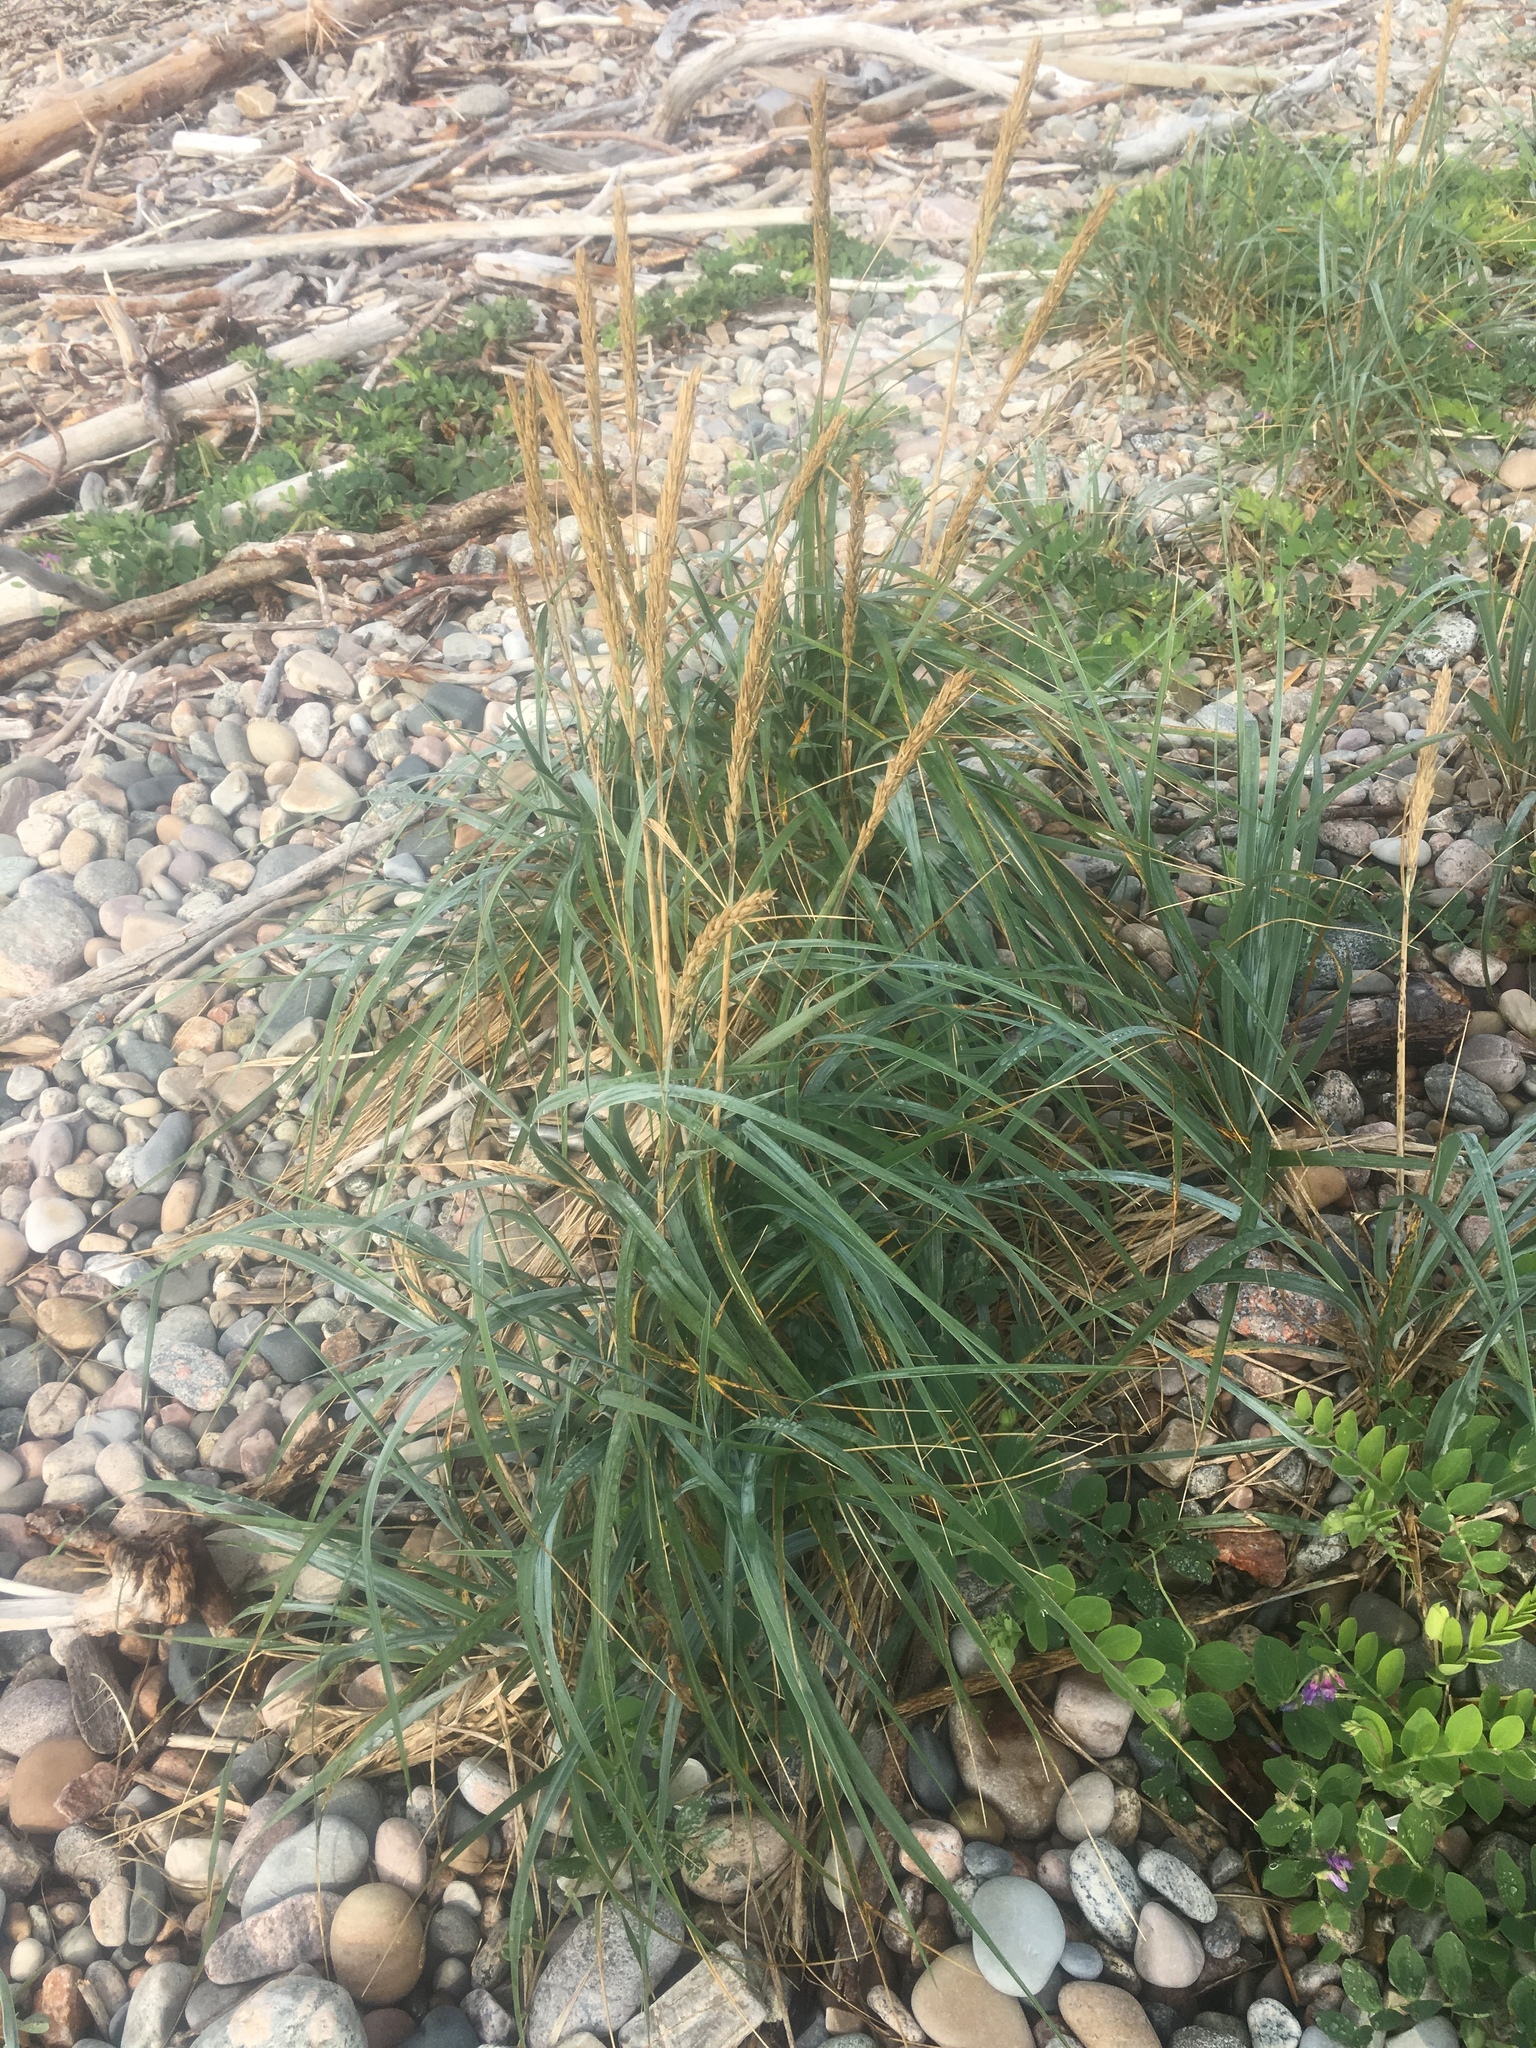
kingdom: Plantae
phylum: Tracheophyta
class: Liliopsida
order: Poales
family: Poaceae
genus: Calamagrostis
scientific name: Calamagrostis breviligulata
